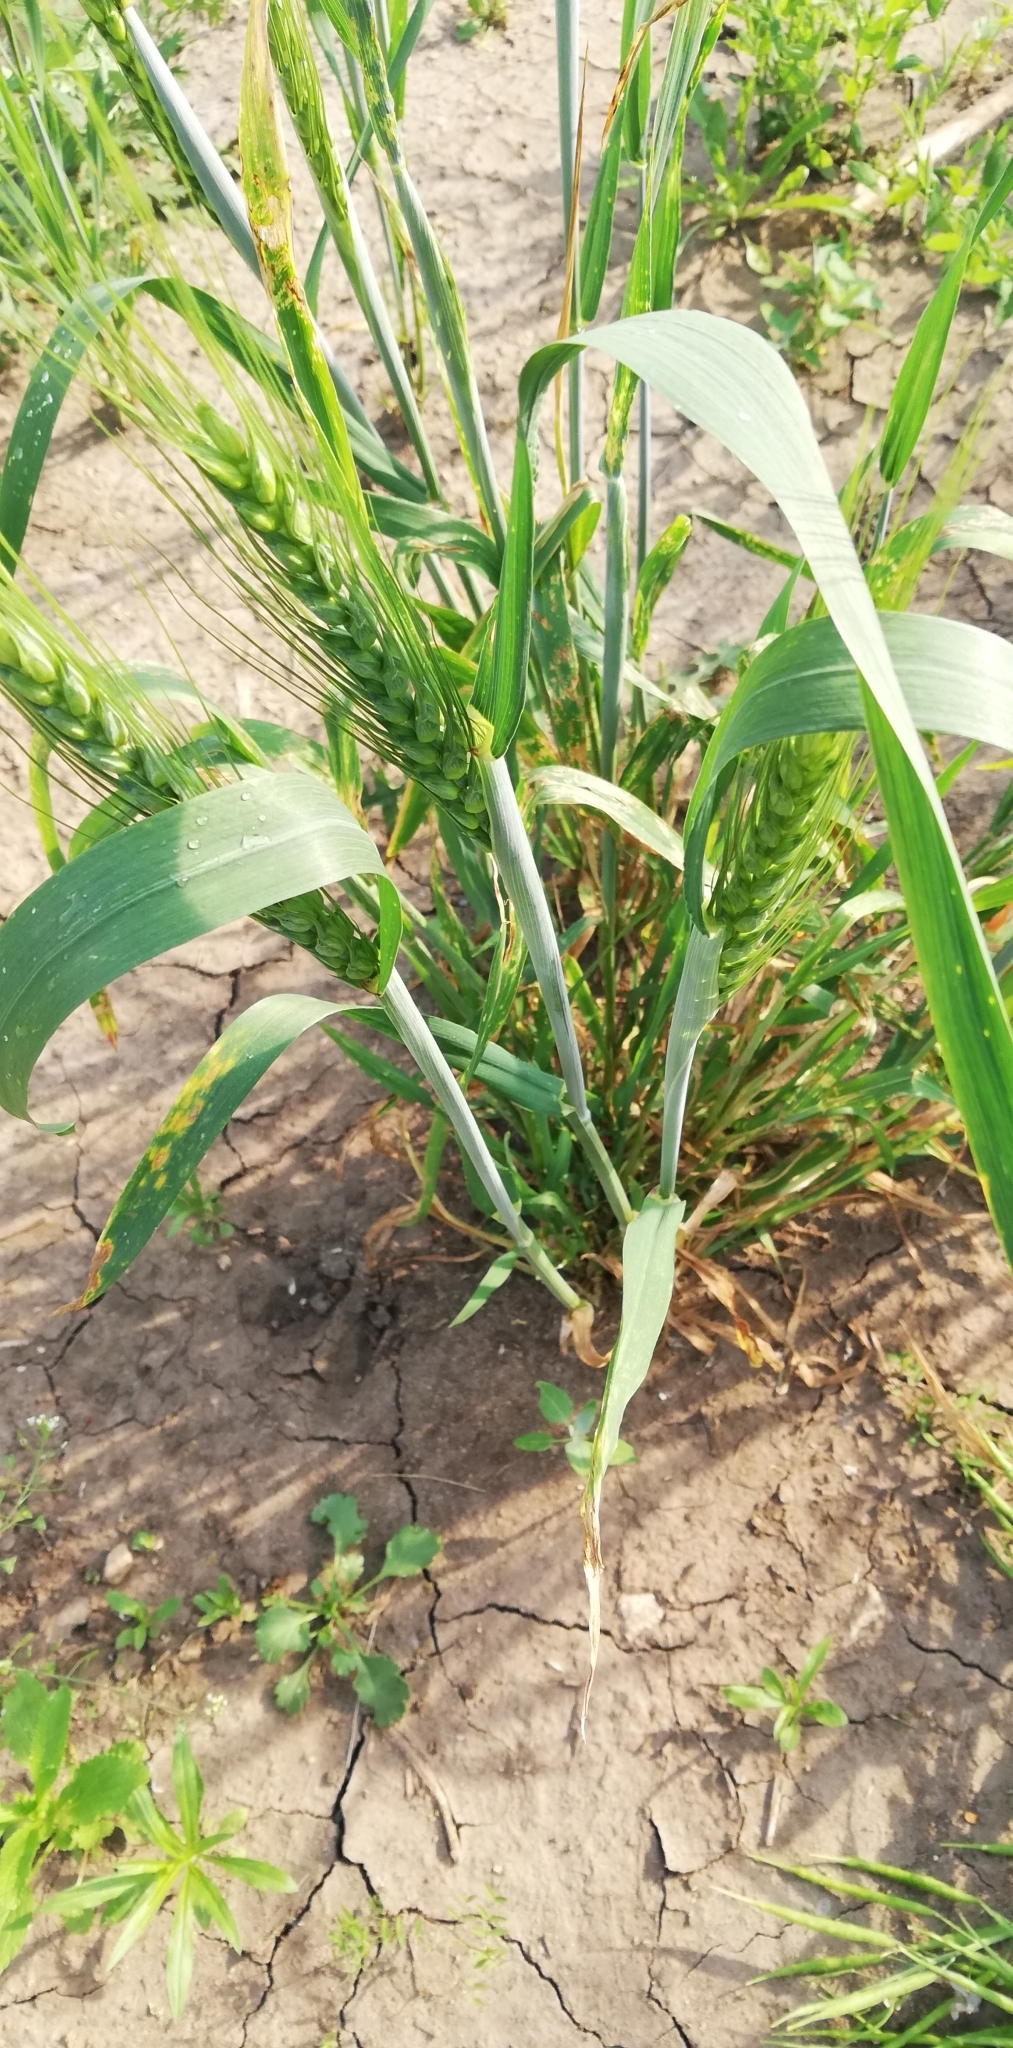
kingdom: Plantae
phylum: Tracheophyta
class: Liliopsida
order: Poales
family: Poaceae
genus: Triticum
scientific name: Triticum aestivum
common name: Common wheat
